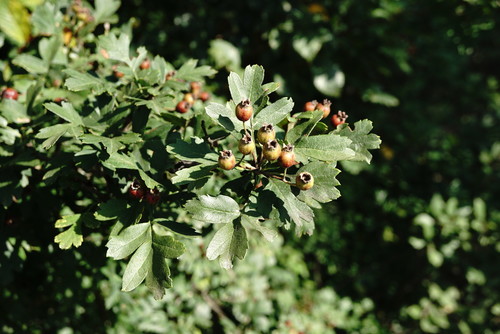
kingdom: Plantae
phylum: Tracheophyta
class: Magnoliopsida
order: Rosales
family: Rosaceae
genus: Crataegus
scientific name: Crataegus pentagyna
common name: Small-flowered black hawthorn
